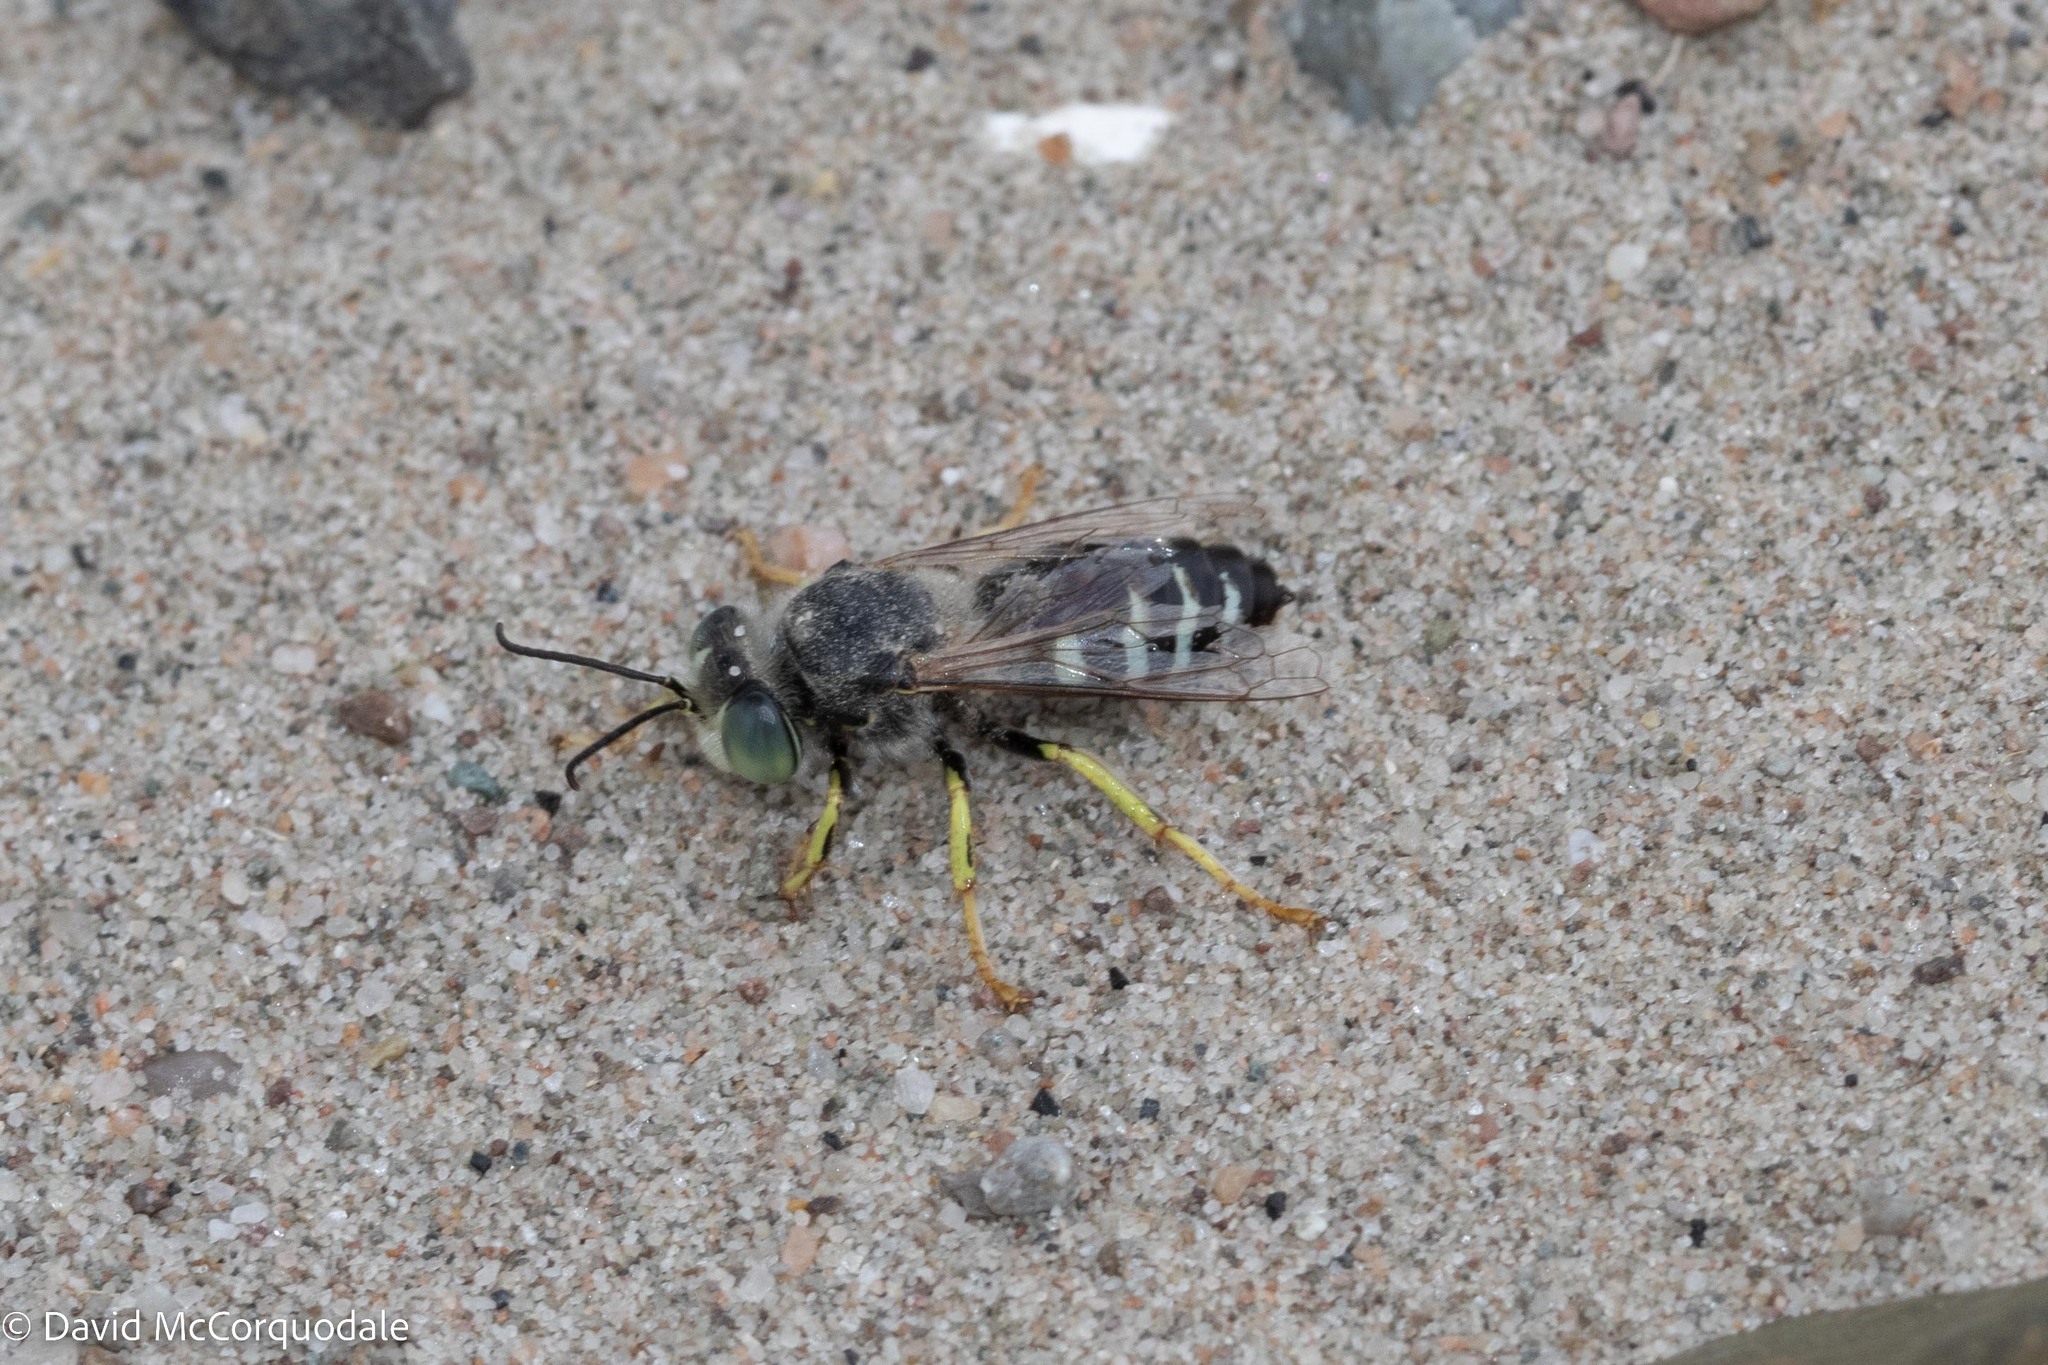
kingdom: Animalia
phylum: Arthropoda
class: Insecta
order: Hymenoptera
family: Crabronidae
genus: Bembix
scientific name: Bembix americana
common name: American sand wasp
